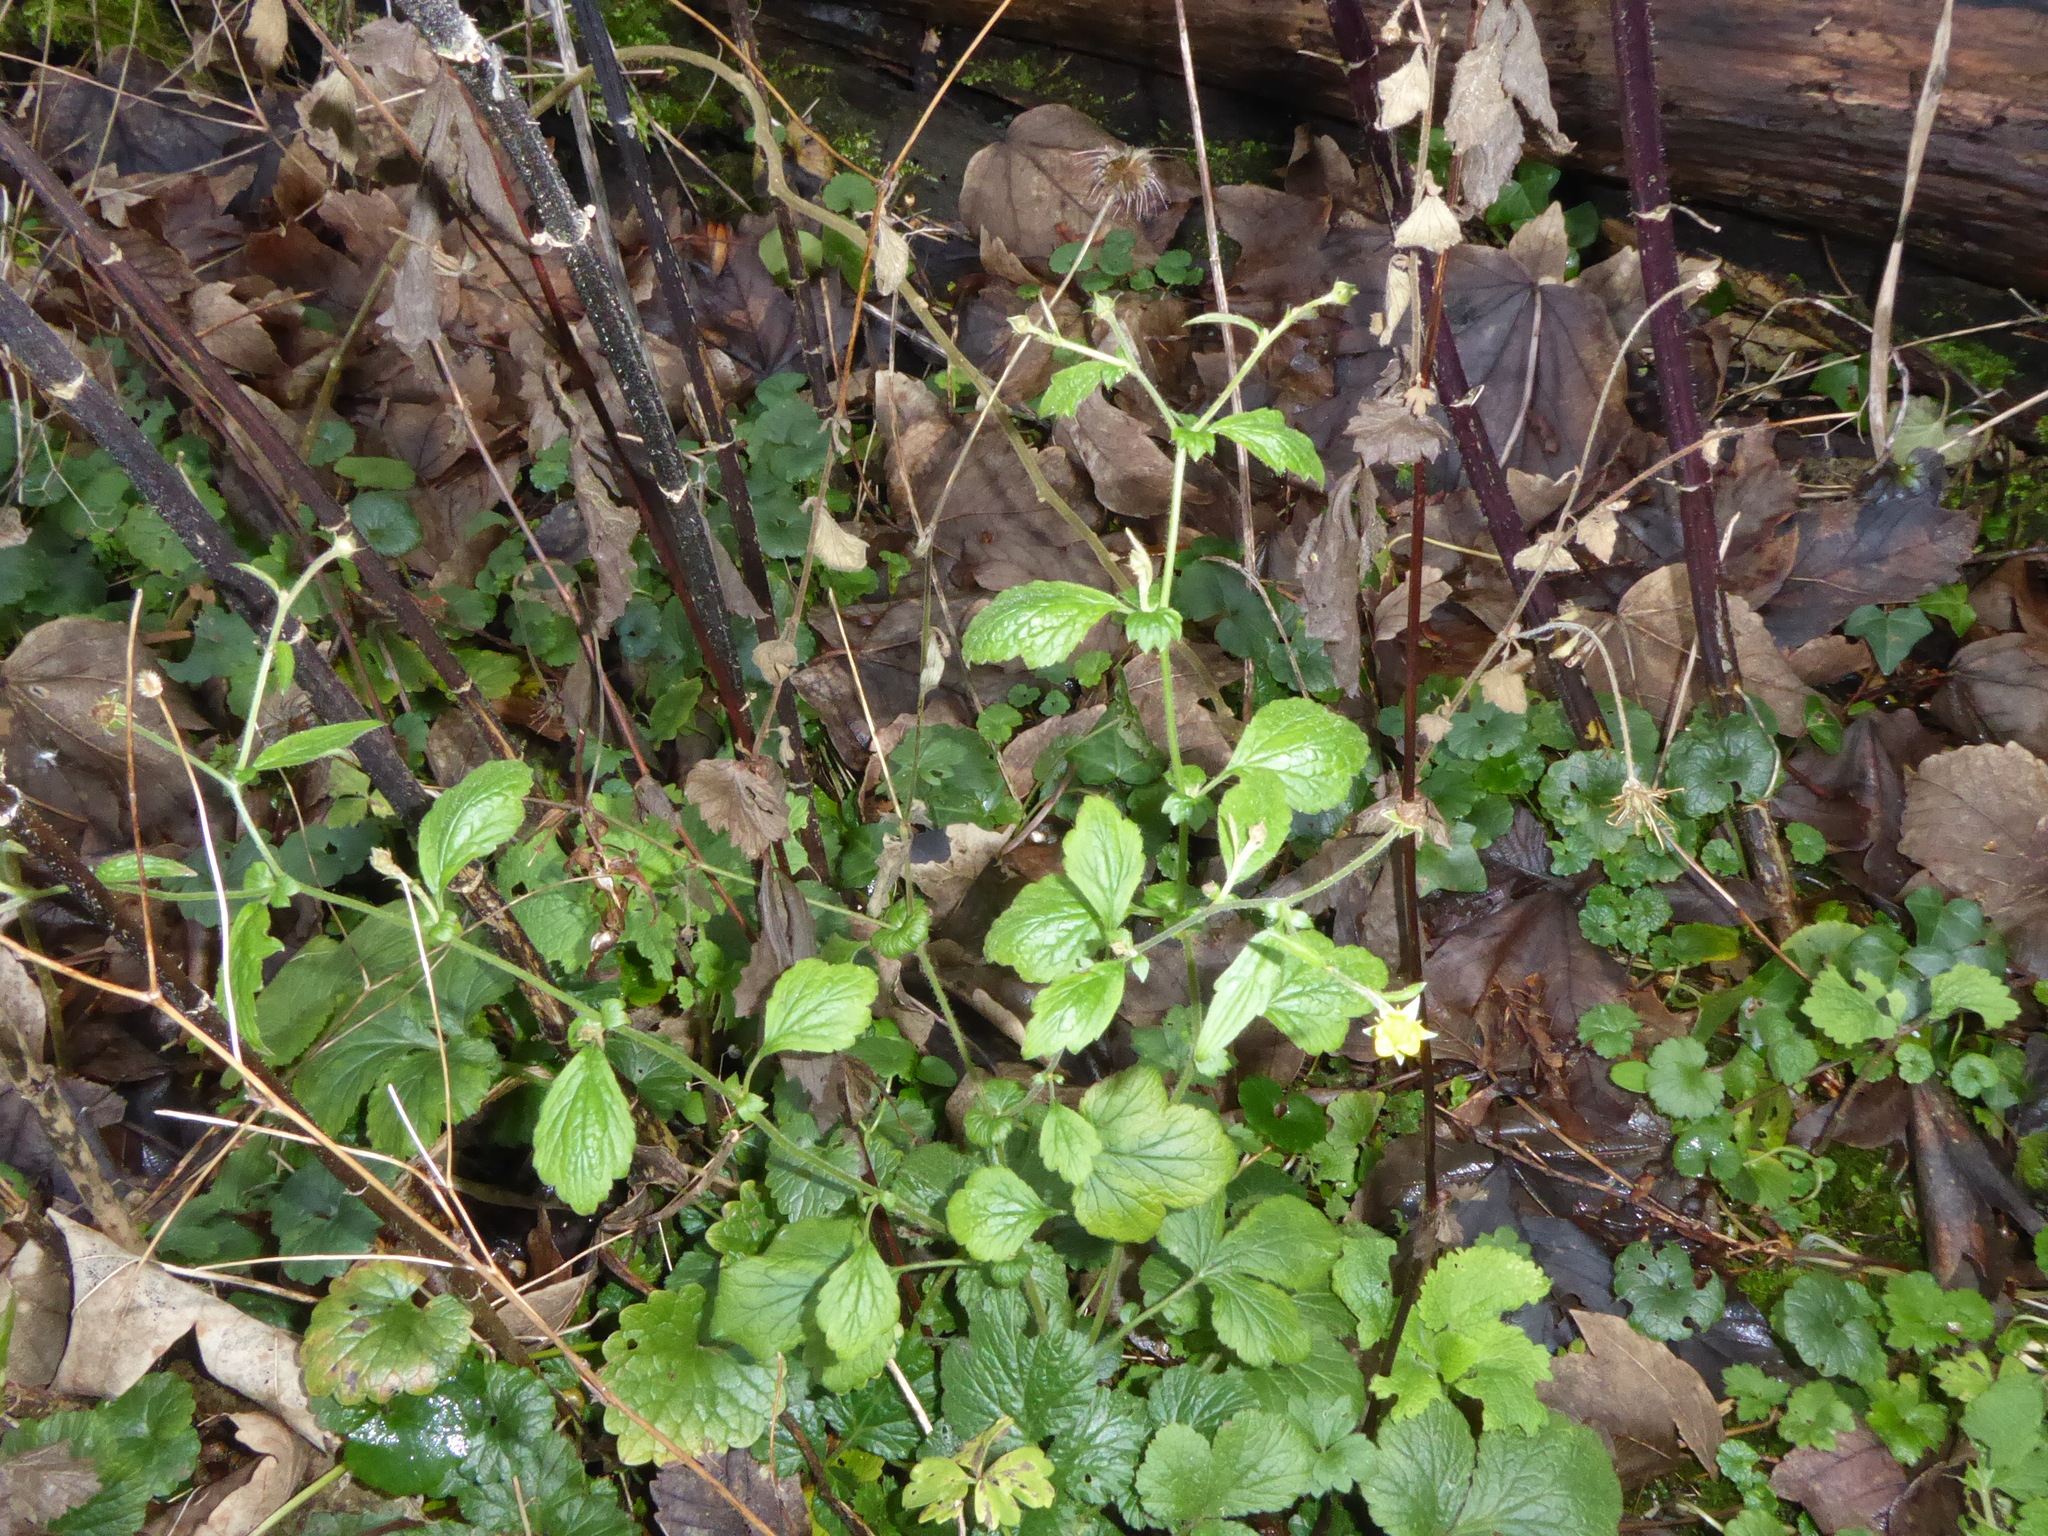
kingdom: Plantae
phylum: Tracheophyta
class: Magnoliopsida
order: Rosales
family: Rosaceae
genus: Geum
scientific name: Geum urbanum
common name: Wood avens
